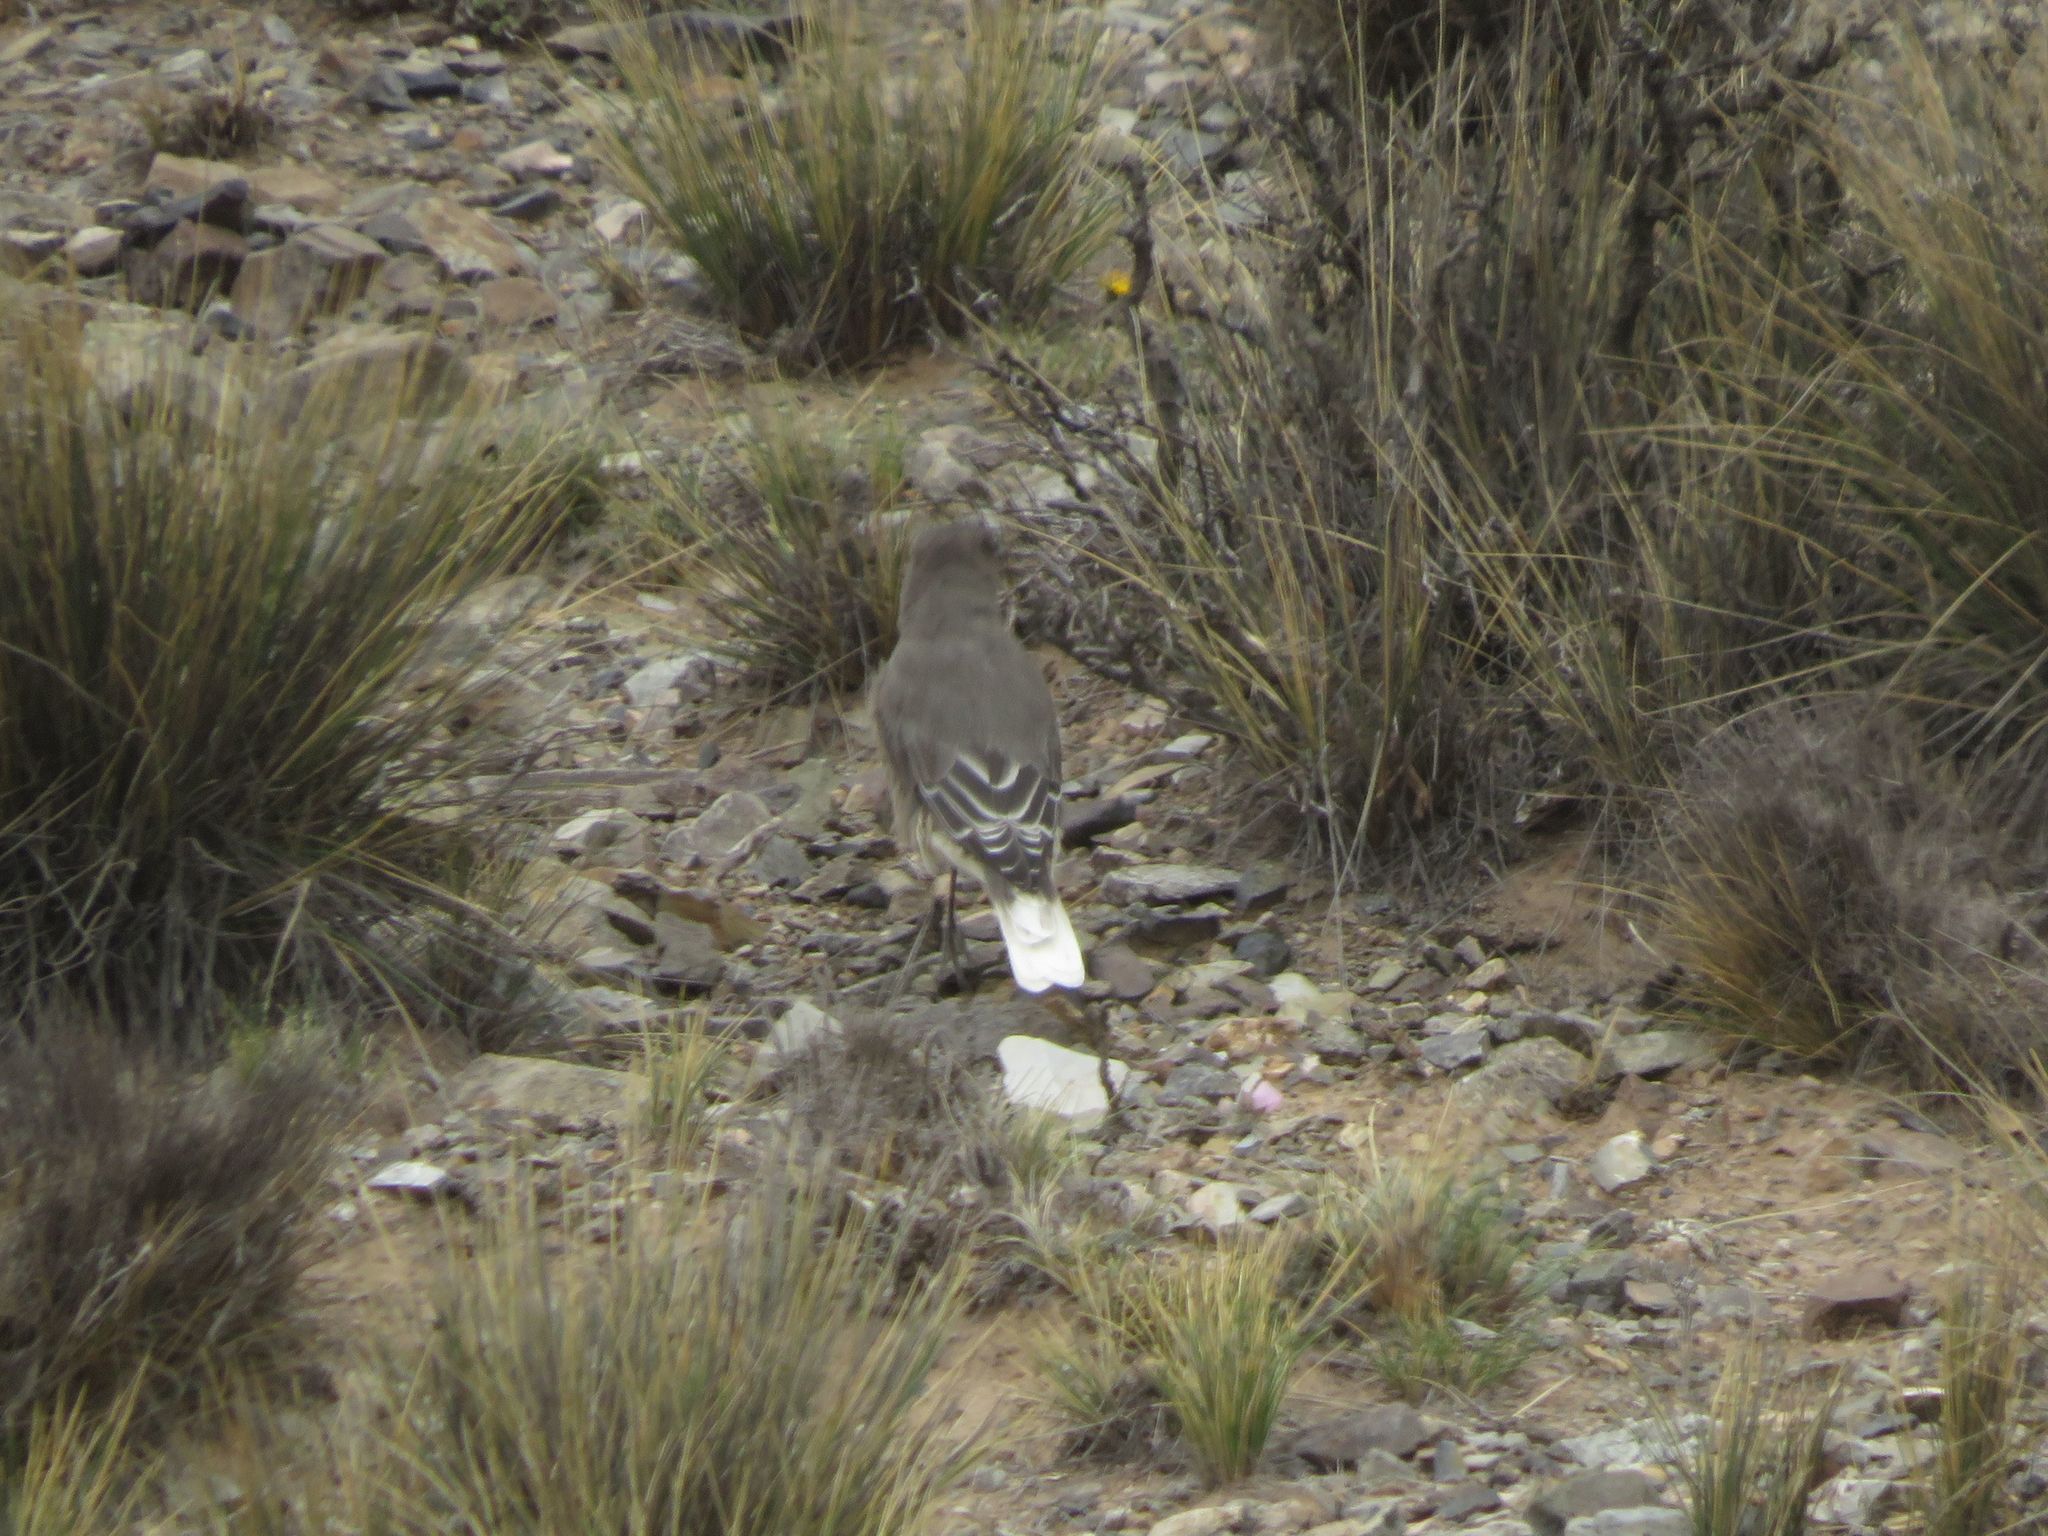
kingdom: Animalia
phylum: Chordata
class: Aves
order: Passeriformes
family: Tyrannidae
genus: Agriornis
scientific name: Agriornis montanus
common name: Black-billed shrike-tyrant
